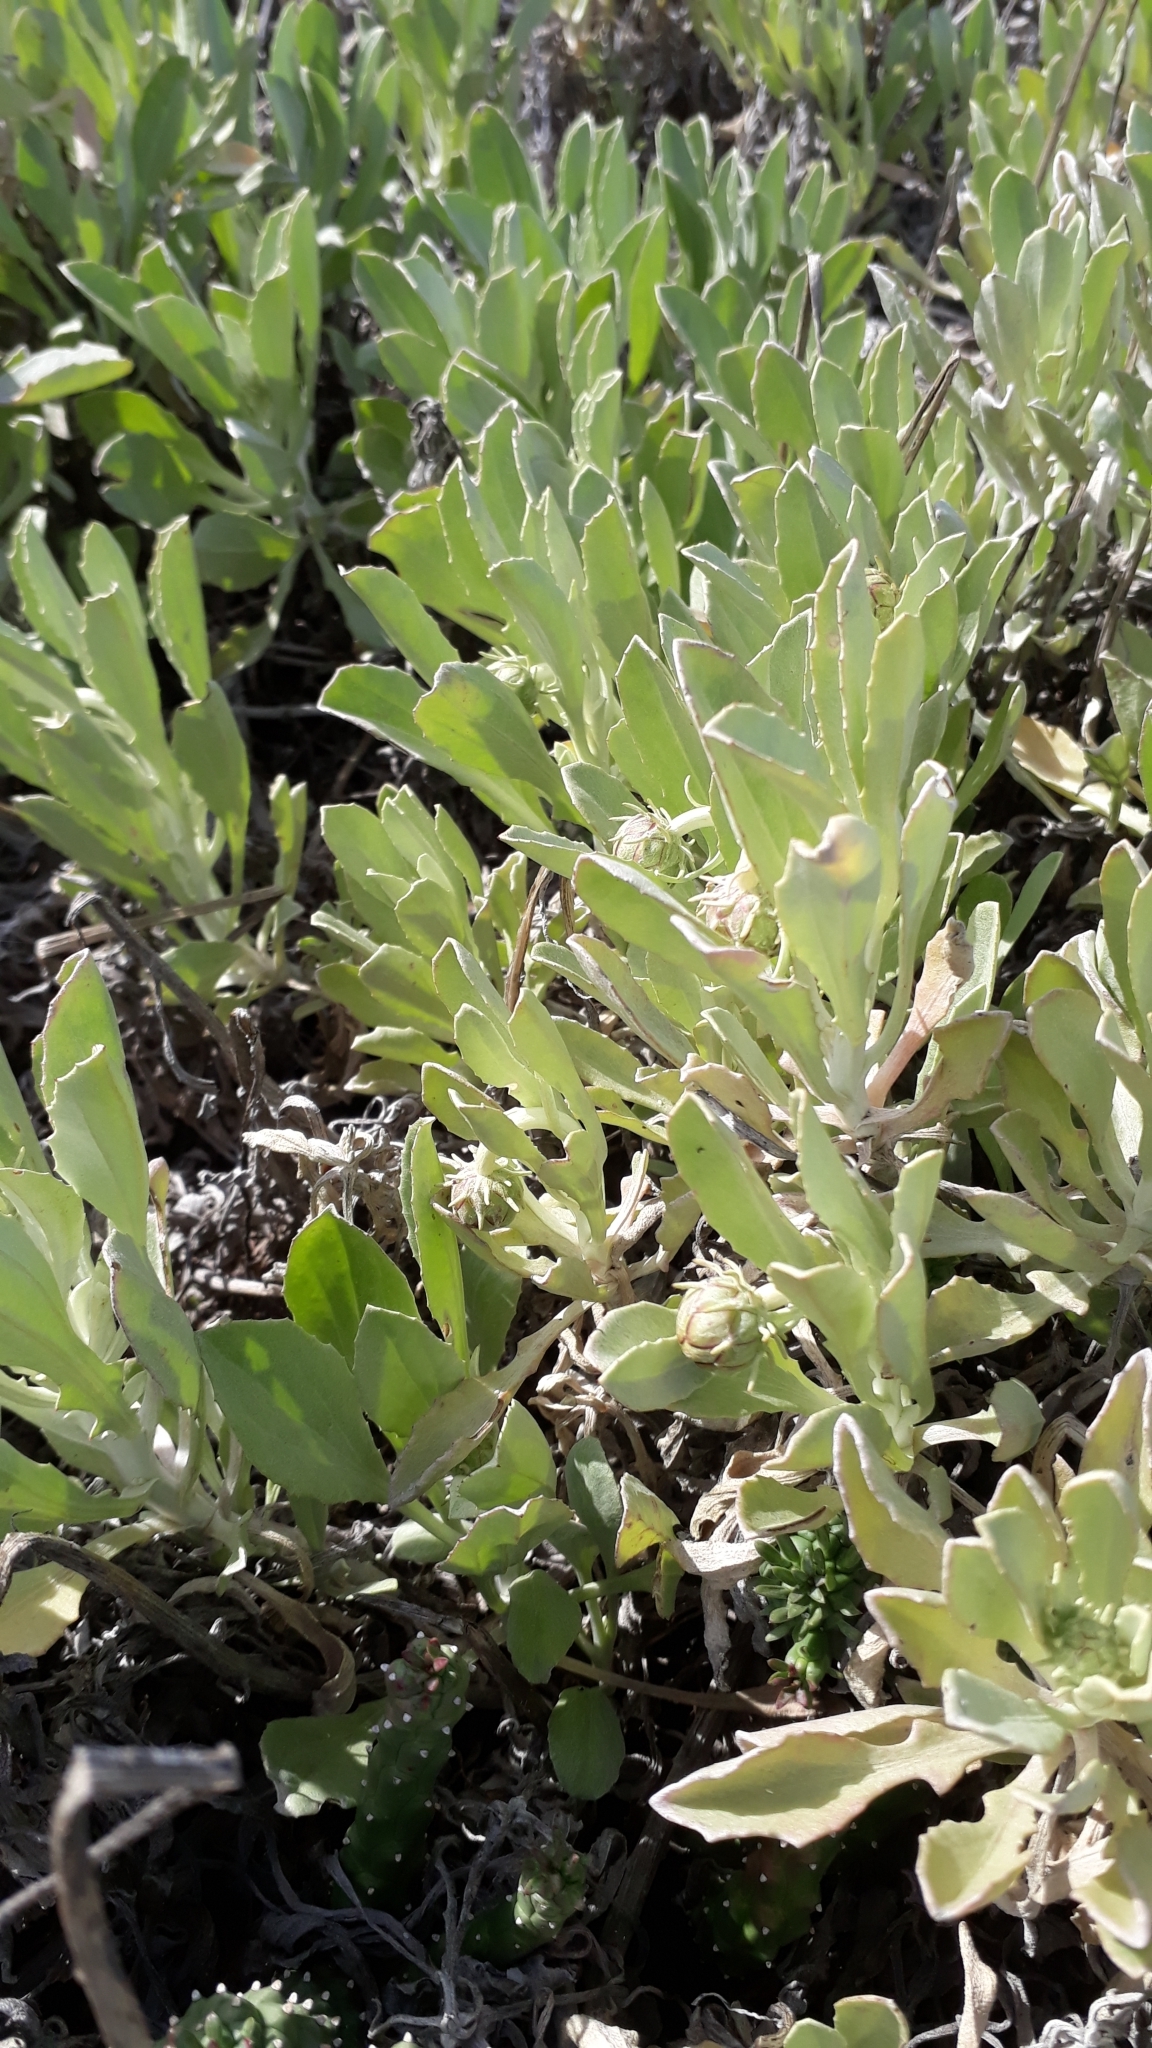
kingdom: Plantae
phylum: Tracheophyta
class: Magnoliopsida
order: Asterales
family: Asteraceae
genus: Arctotis
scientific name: Arctotis stoechadifolia
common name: African daisy
